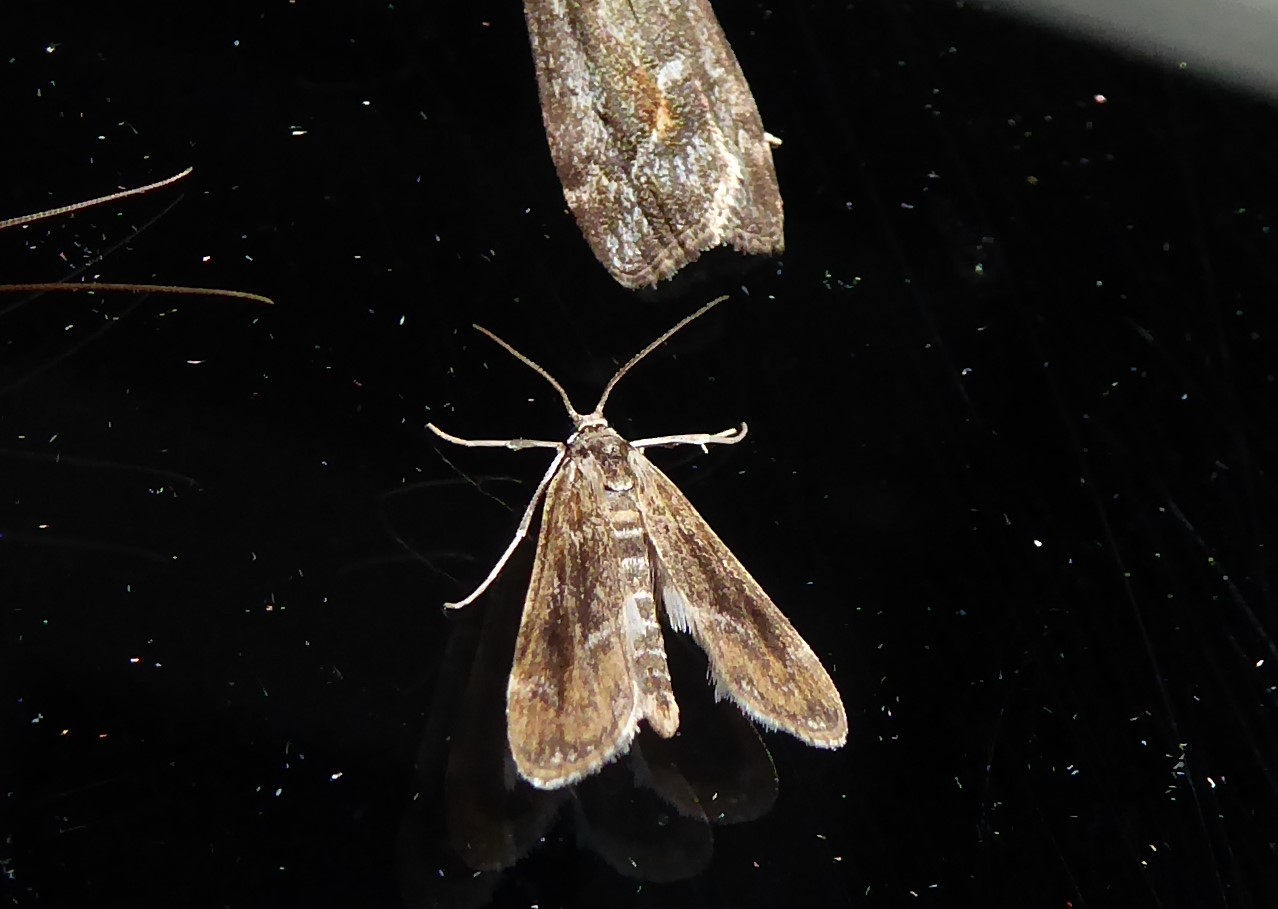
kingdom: Animalia
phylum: Arthropoda
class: Insecta
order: Lepidoptera
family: Crambidae
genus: Hygraula
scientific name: Hygraula nitens
